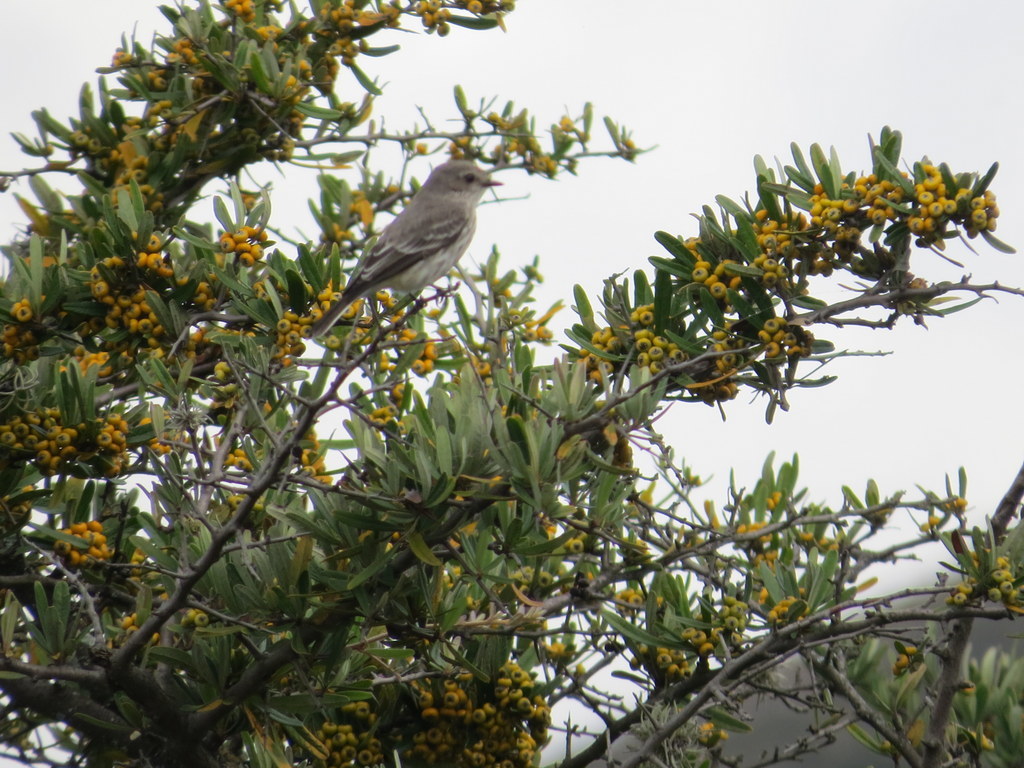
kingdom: Animalia
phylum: Chordata
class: Aves
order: Passeriformes
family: Tyrannidae
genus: Pyrocephalus
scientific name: Pyrocephalus rubinus
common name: Vermilion flycatcher
